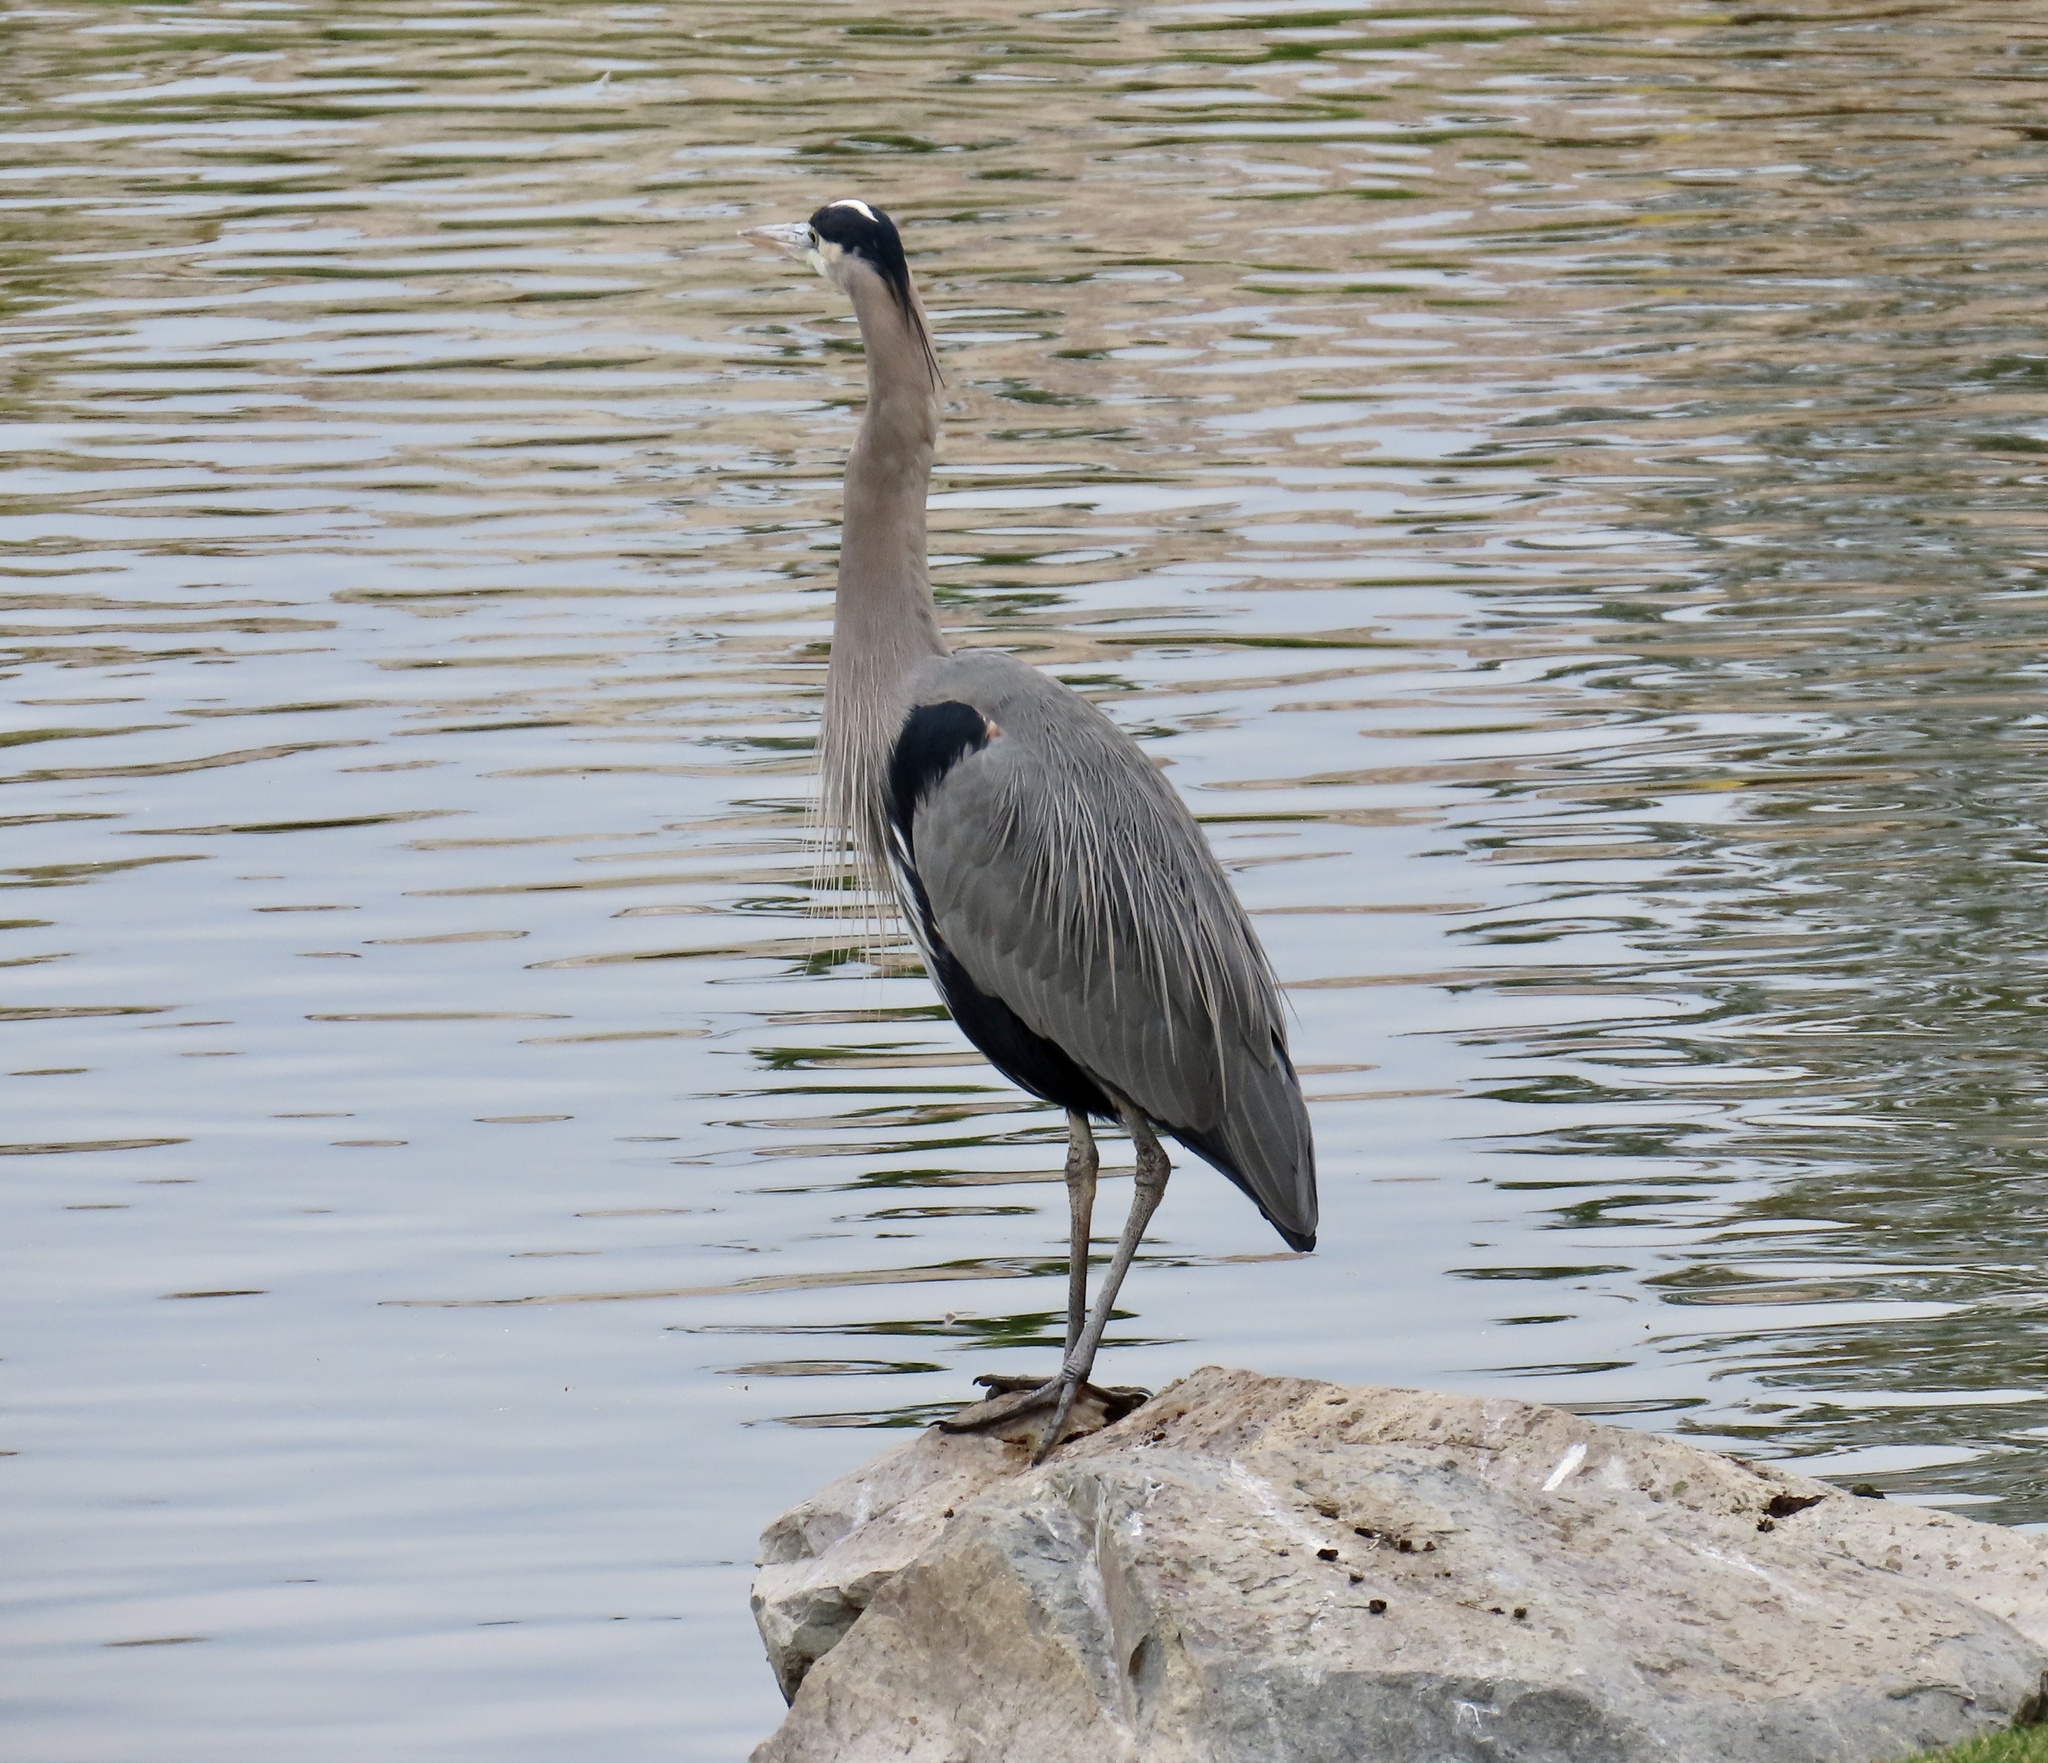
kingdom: Animalia
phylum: Chordata
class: Aves
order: Pelecaniformes
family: Ardeidae
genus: Ardea
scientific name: Ardea herodias
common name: Great blue heron
